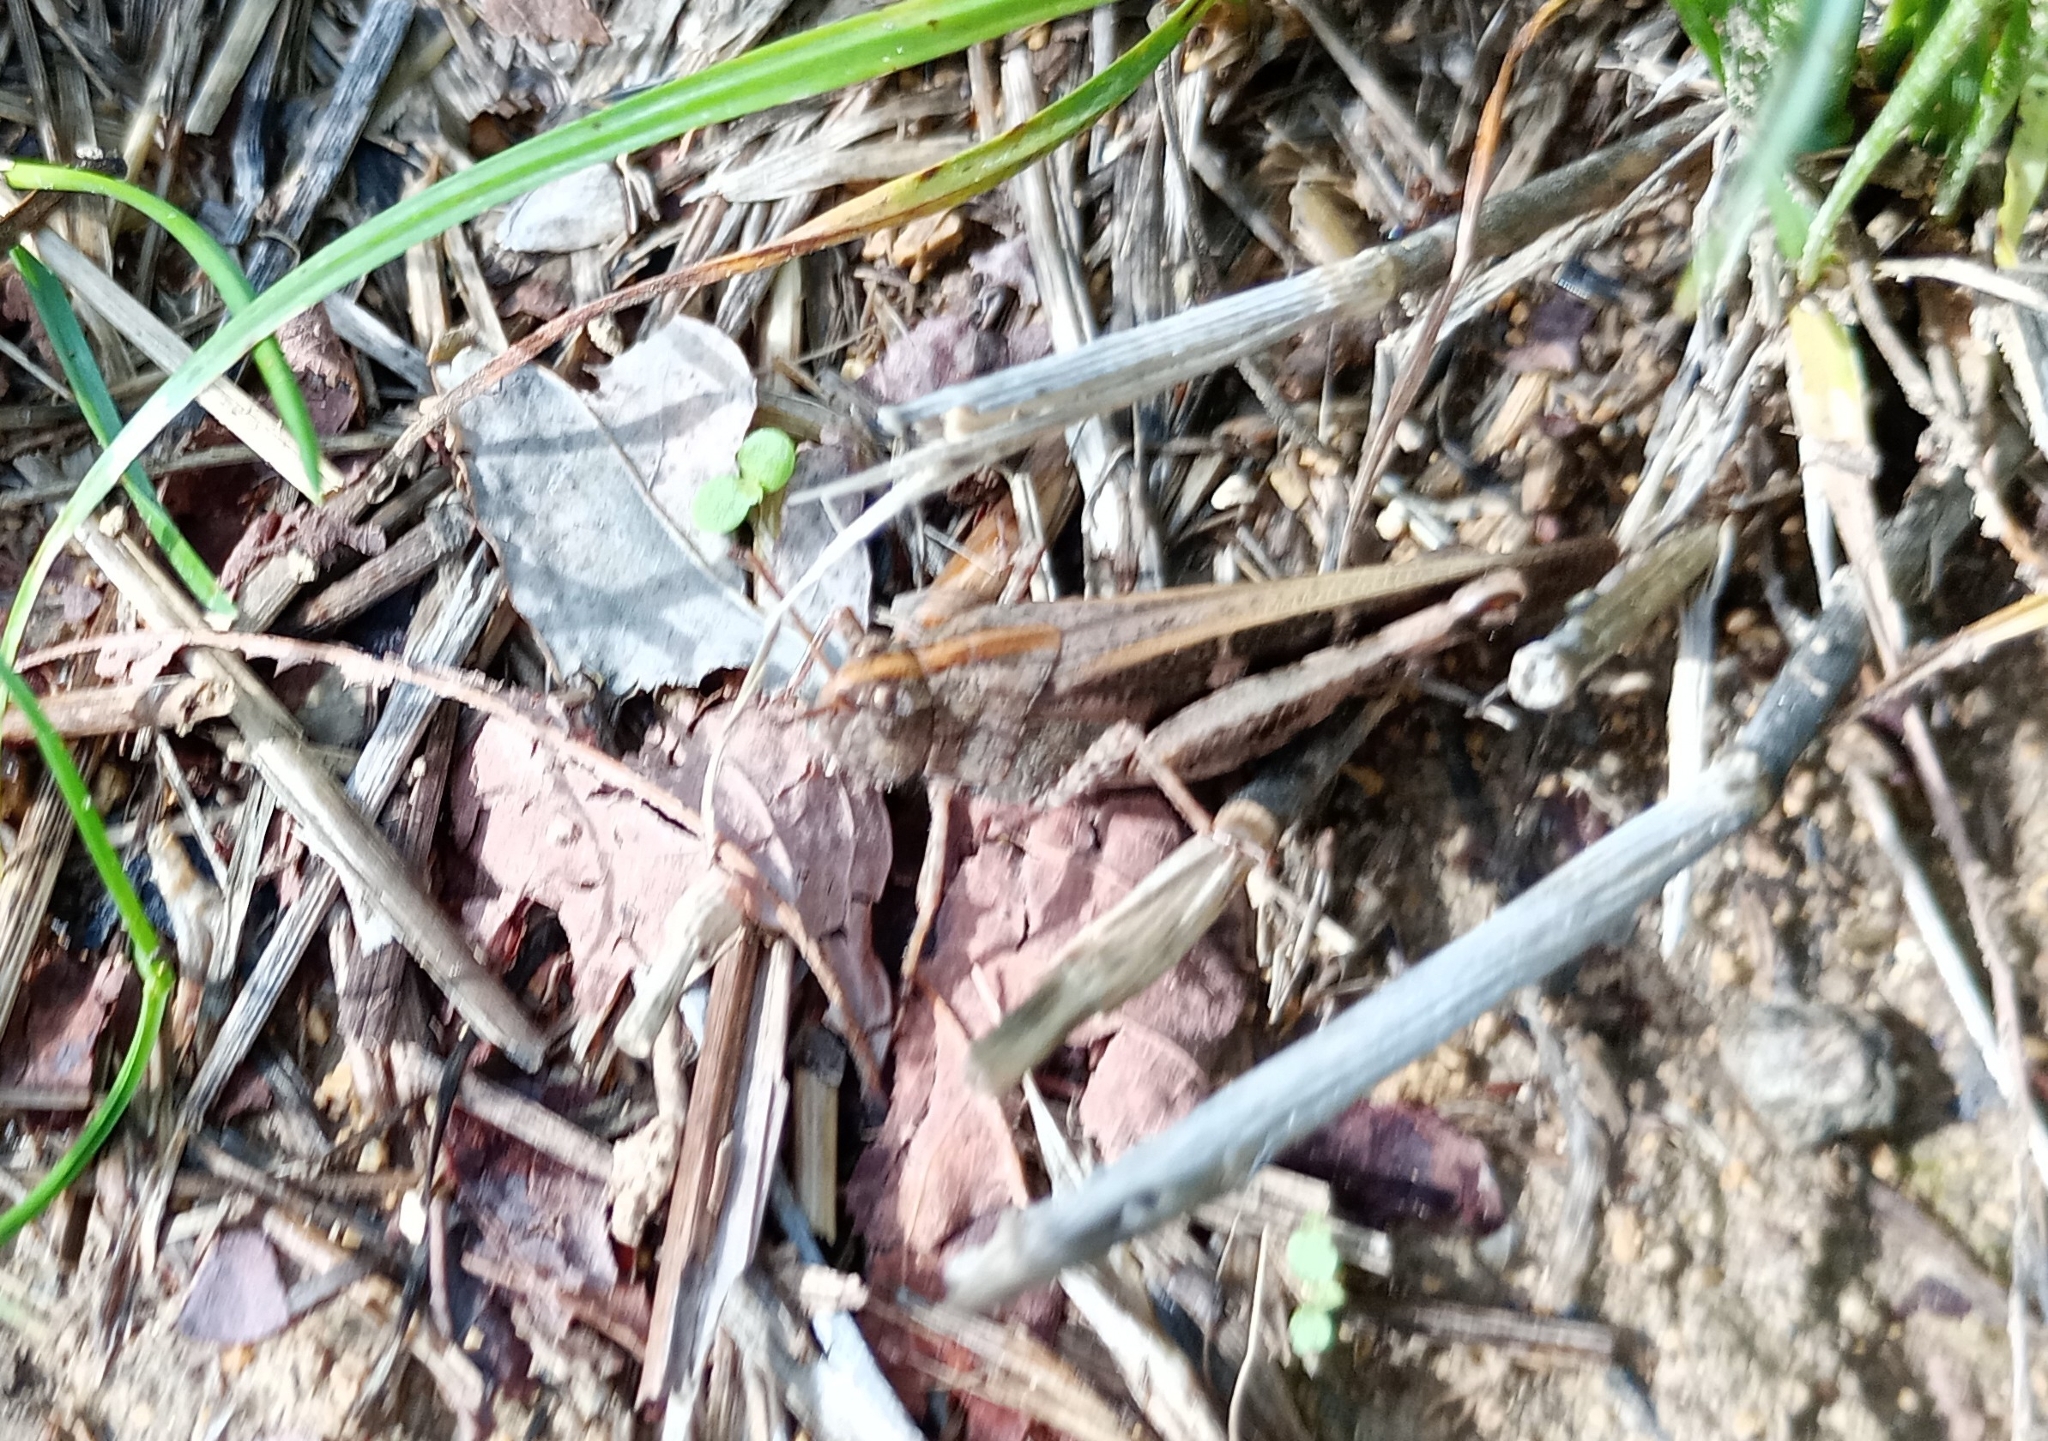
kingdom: Animalia
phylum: Arthropoda
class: Insecta
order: Orthoptera
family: Acrididae
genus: Aiolopus
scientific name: Aiolopus strepens
